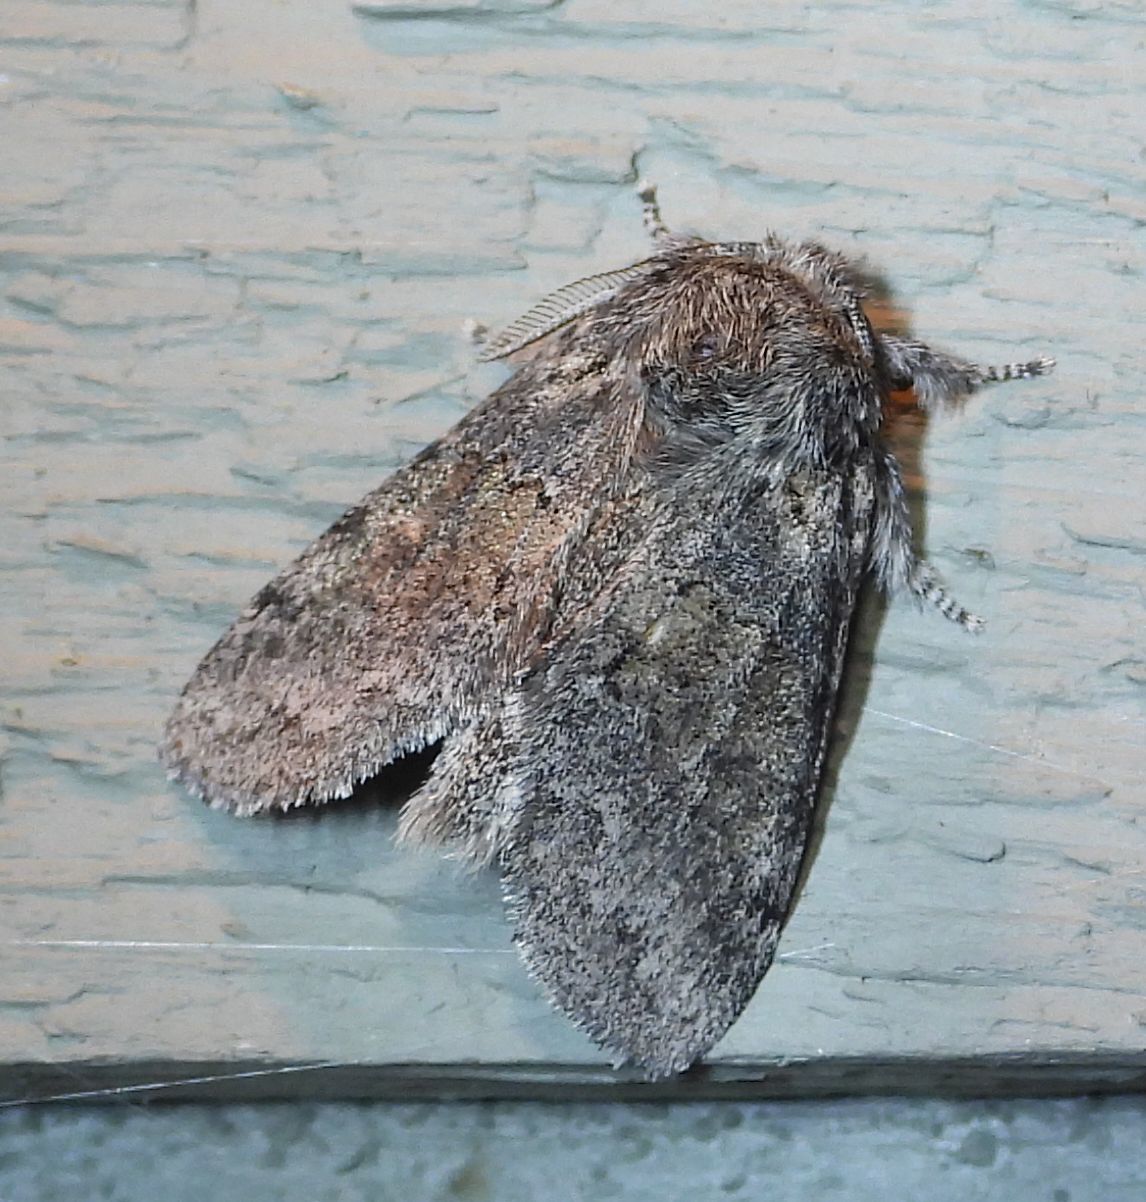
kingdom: Animalia
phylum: Arthropoda
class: Insecta
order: Lepidoptera
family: Notodontidae
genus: Gluphisia
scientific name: Gluphisia septentrionis
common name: Common gluphisia
